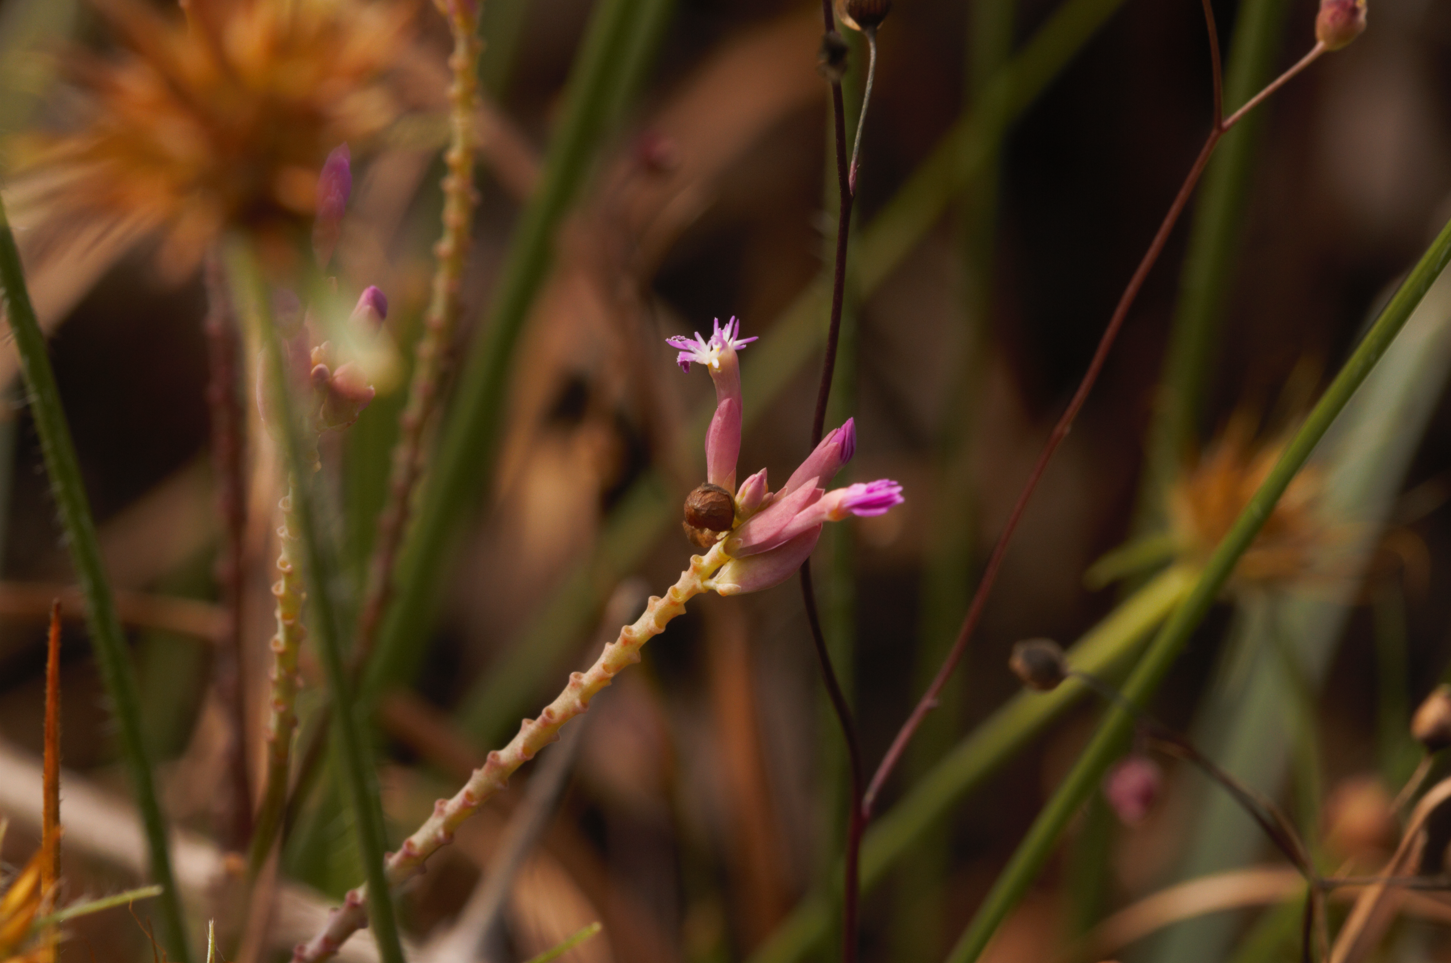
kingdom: Plantae
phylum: Tracheophyta
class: Magnoliopsida
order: Fabales
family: Polygalaceae
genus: Polygala
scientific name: Polygala adenophora
